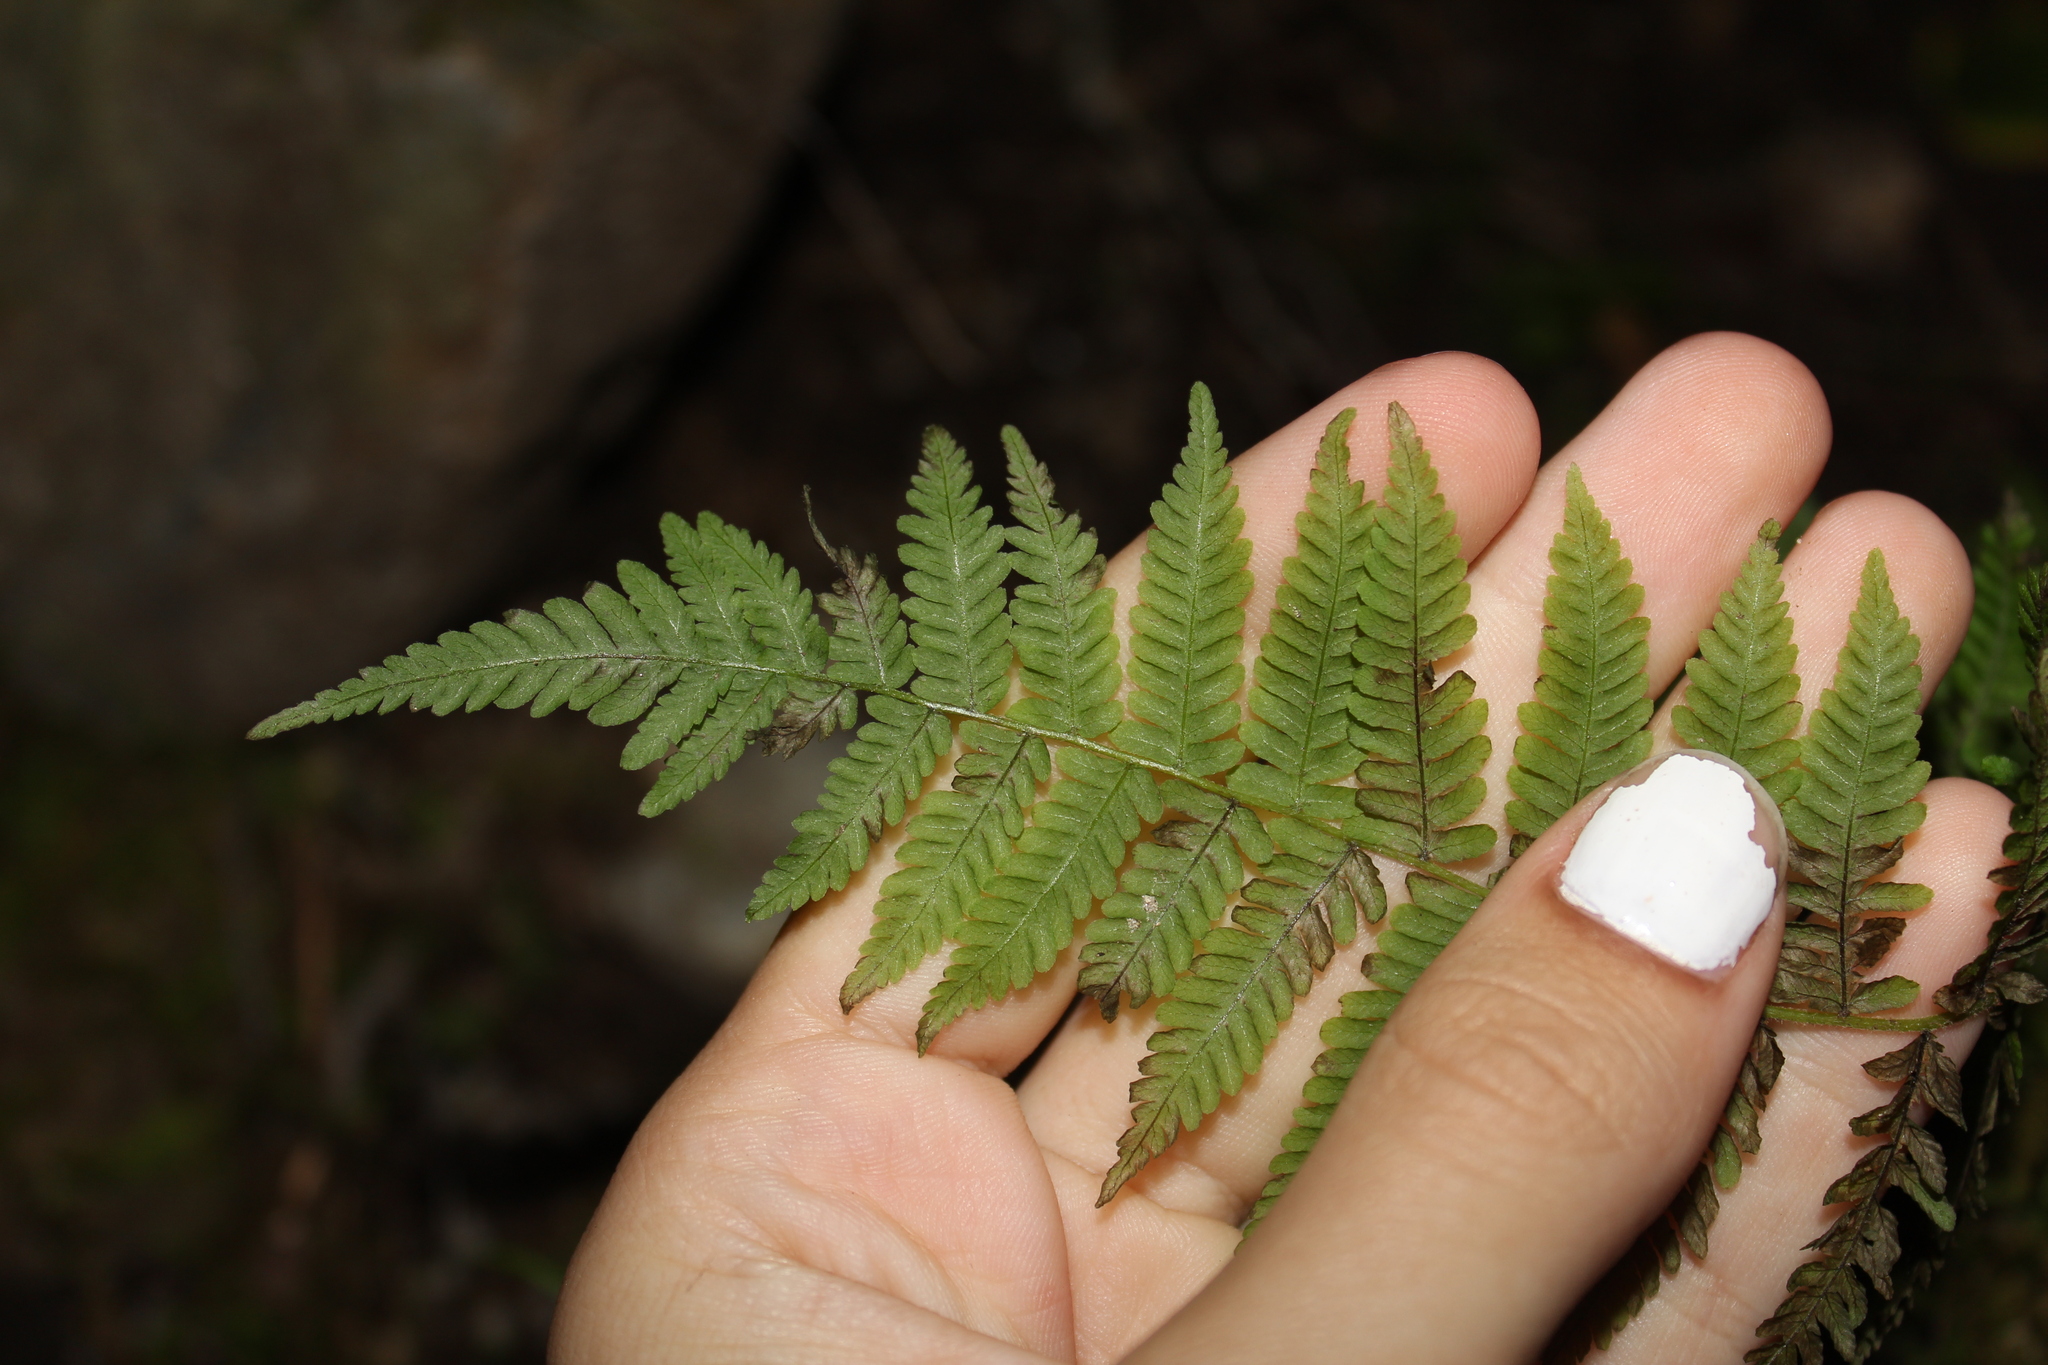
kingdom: Plantae
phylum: Tracheophyta
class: Polypodiopsida
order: Polypodiales
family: Thelypteridaceae
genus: Amauropelta
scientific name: Amauropelta noveboracensis
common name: New york fern
